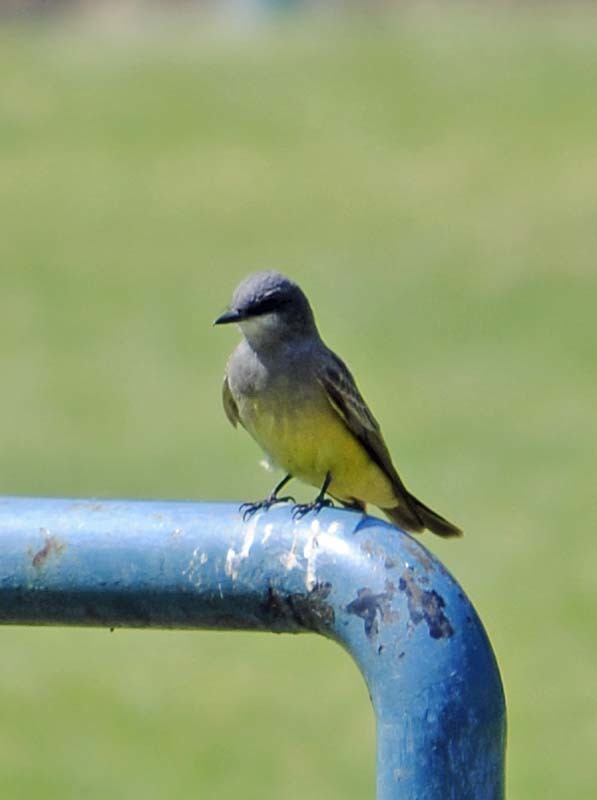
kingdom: Animalia
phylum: Chordata
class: Aves
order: Passeriformes
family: Tyrannidae
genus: Tyrannus
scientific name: Tyrannus vociferans
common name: Cassin's kingbird
